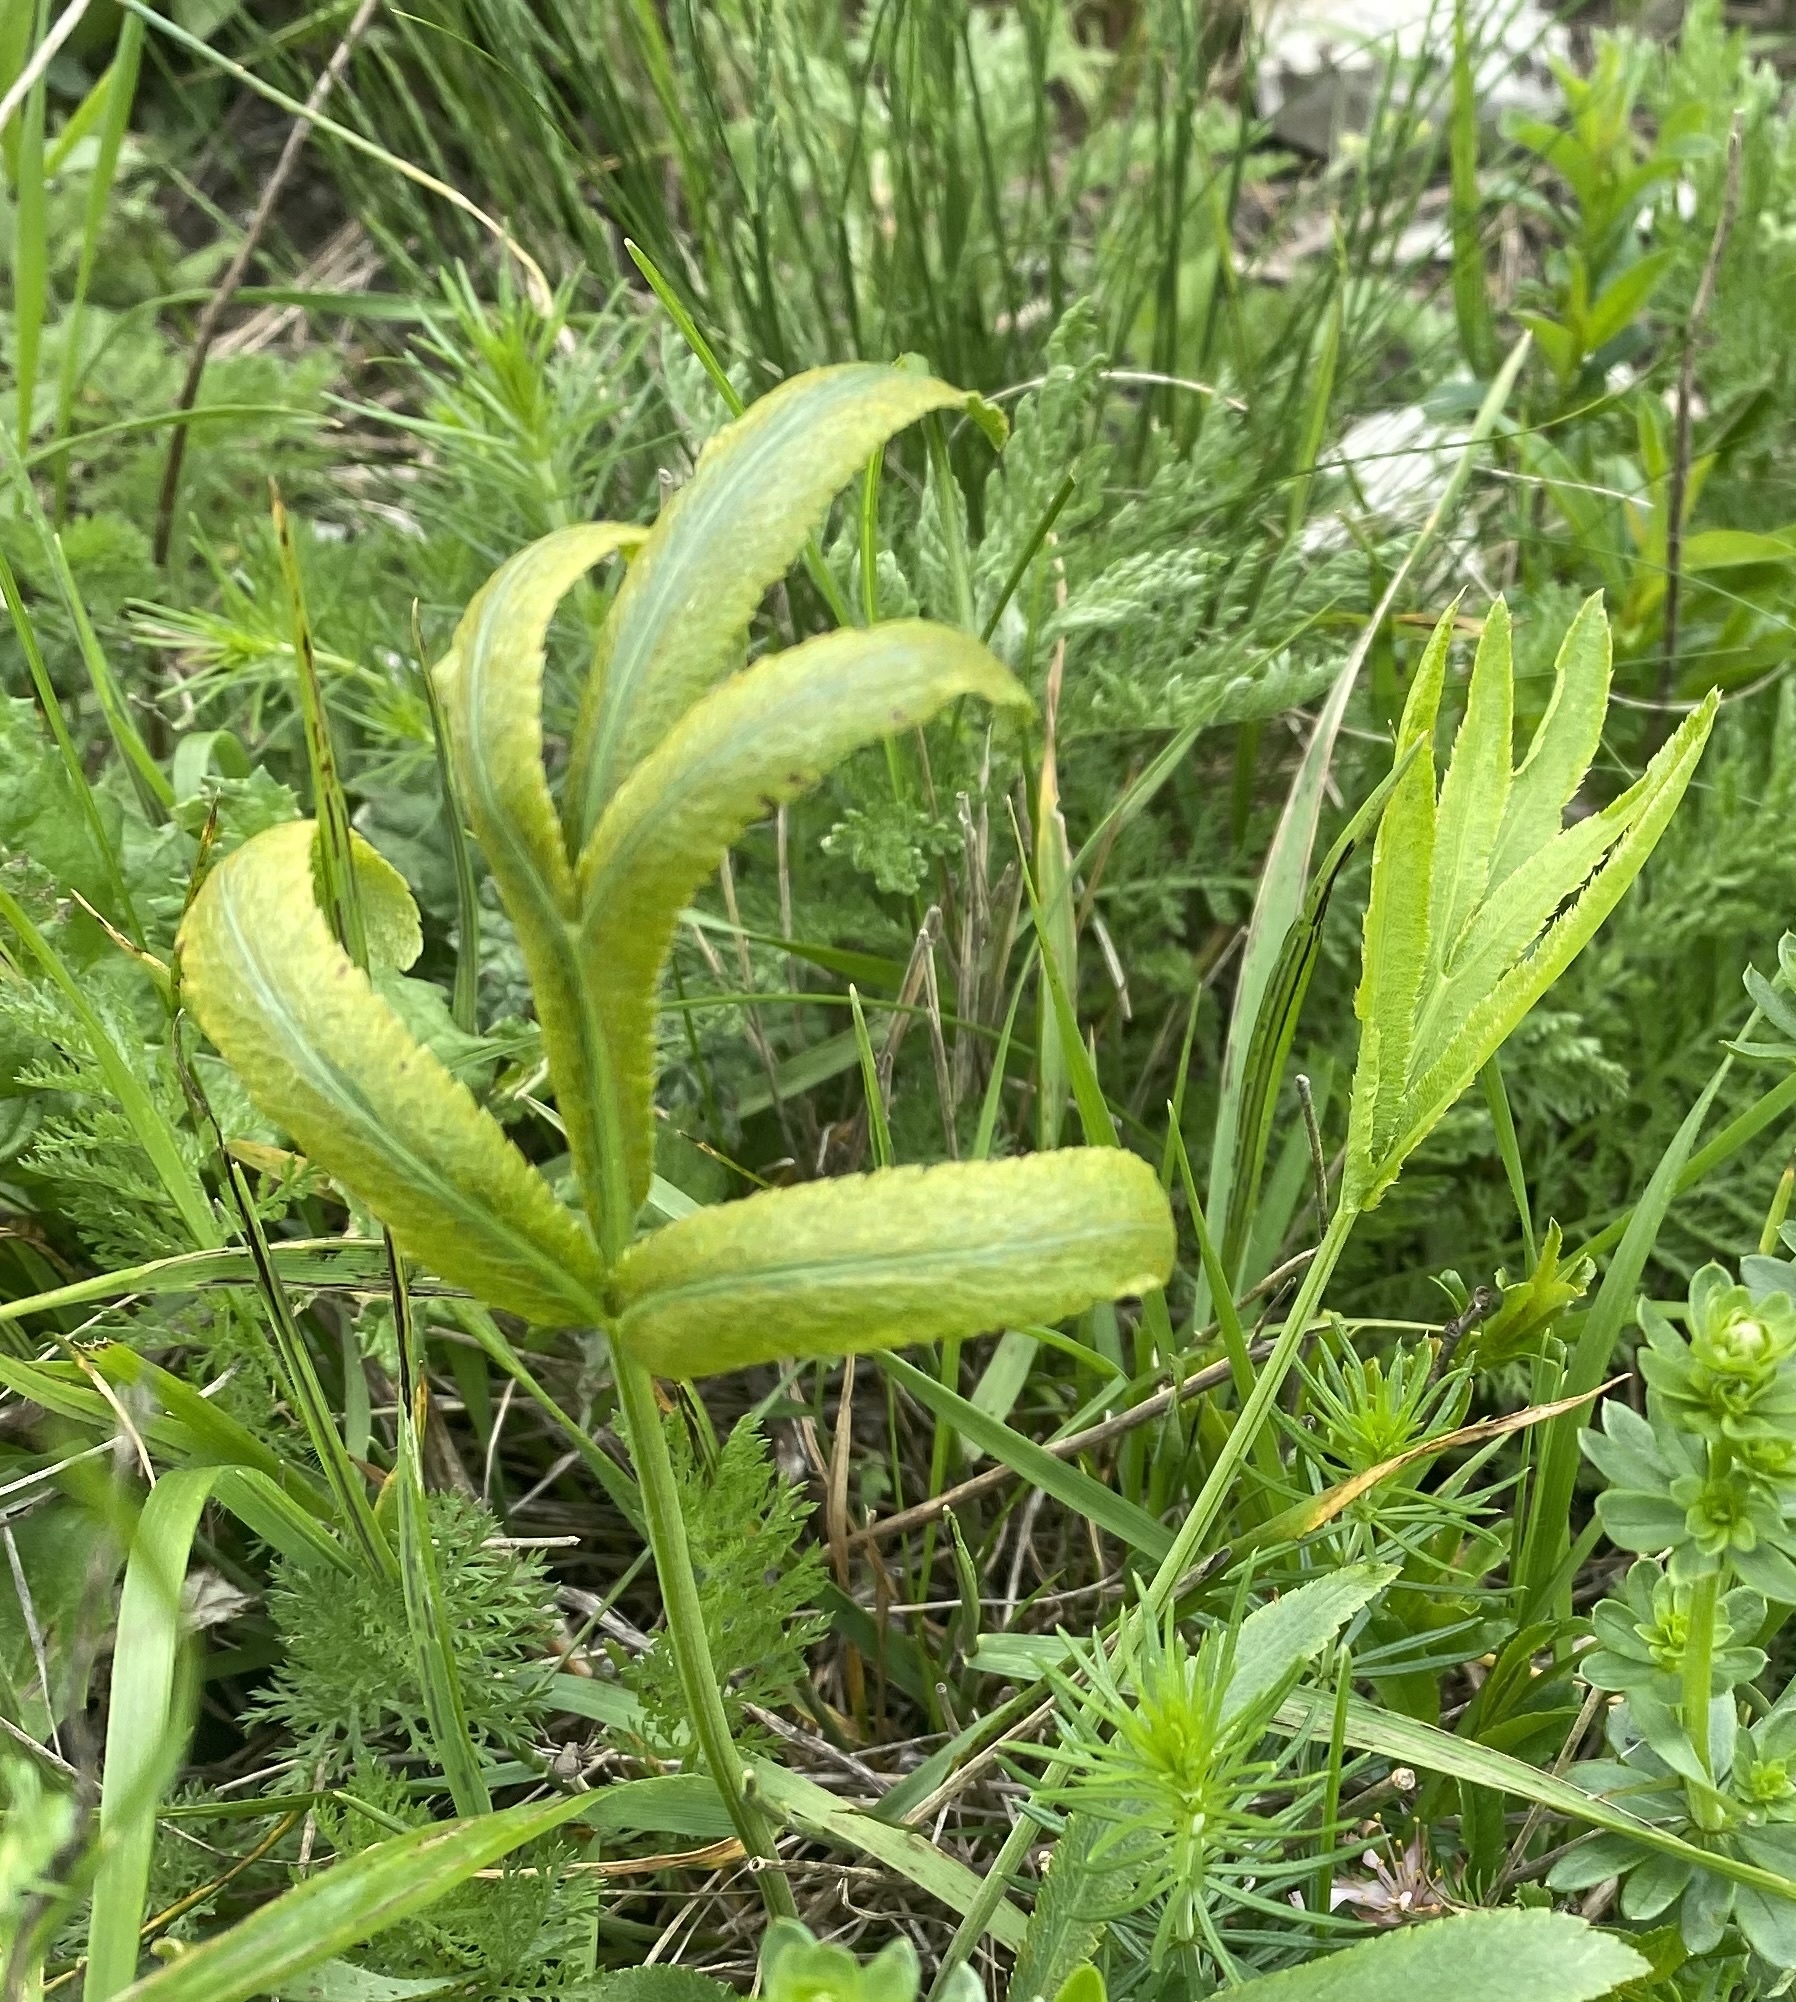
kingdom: Fungi
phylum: Basidiomycota
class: Pucciniomycetes
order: Pucciniales
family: Pucciniaceae
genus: Puccinia
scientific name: Puccinia sii-falcariae
